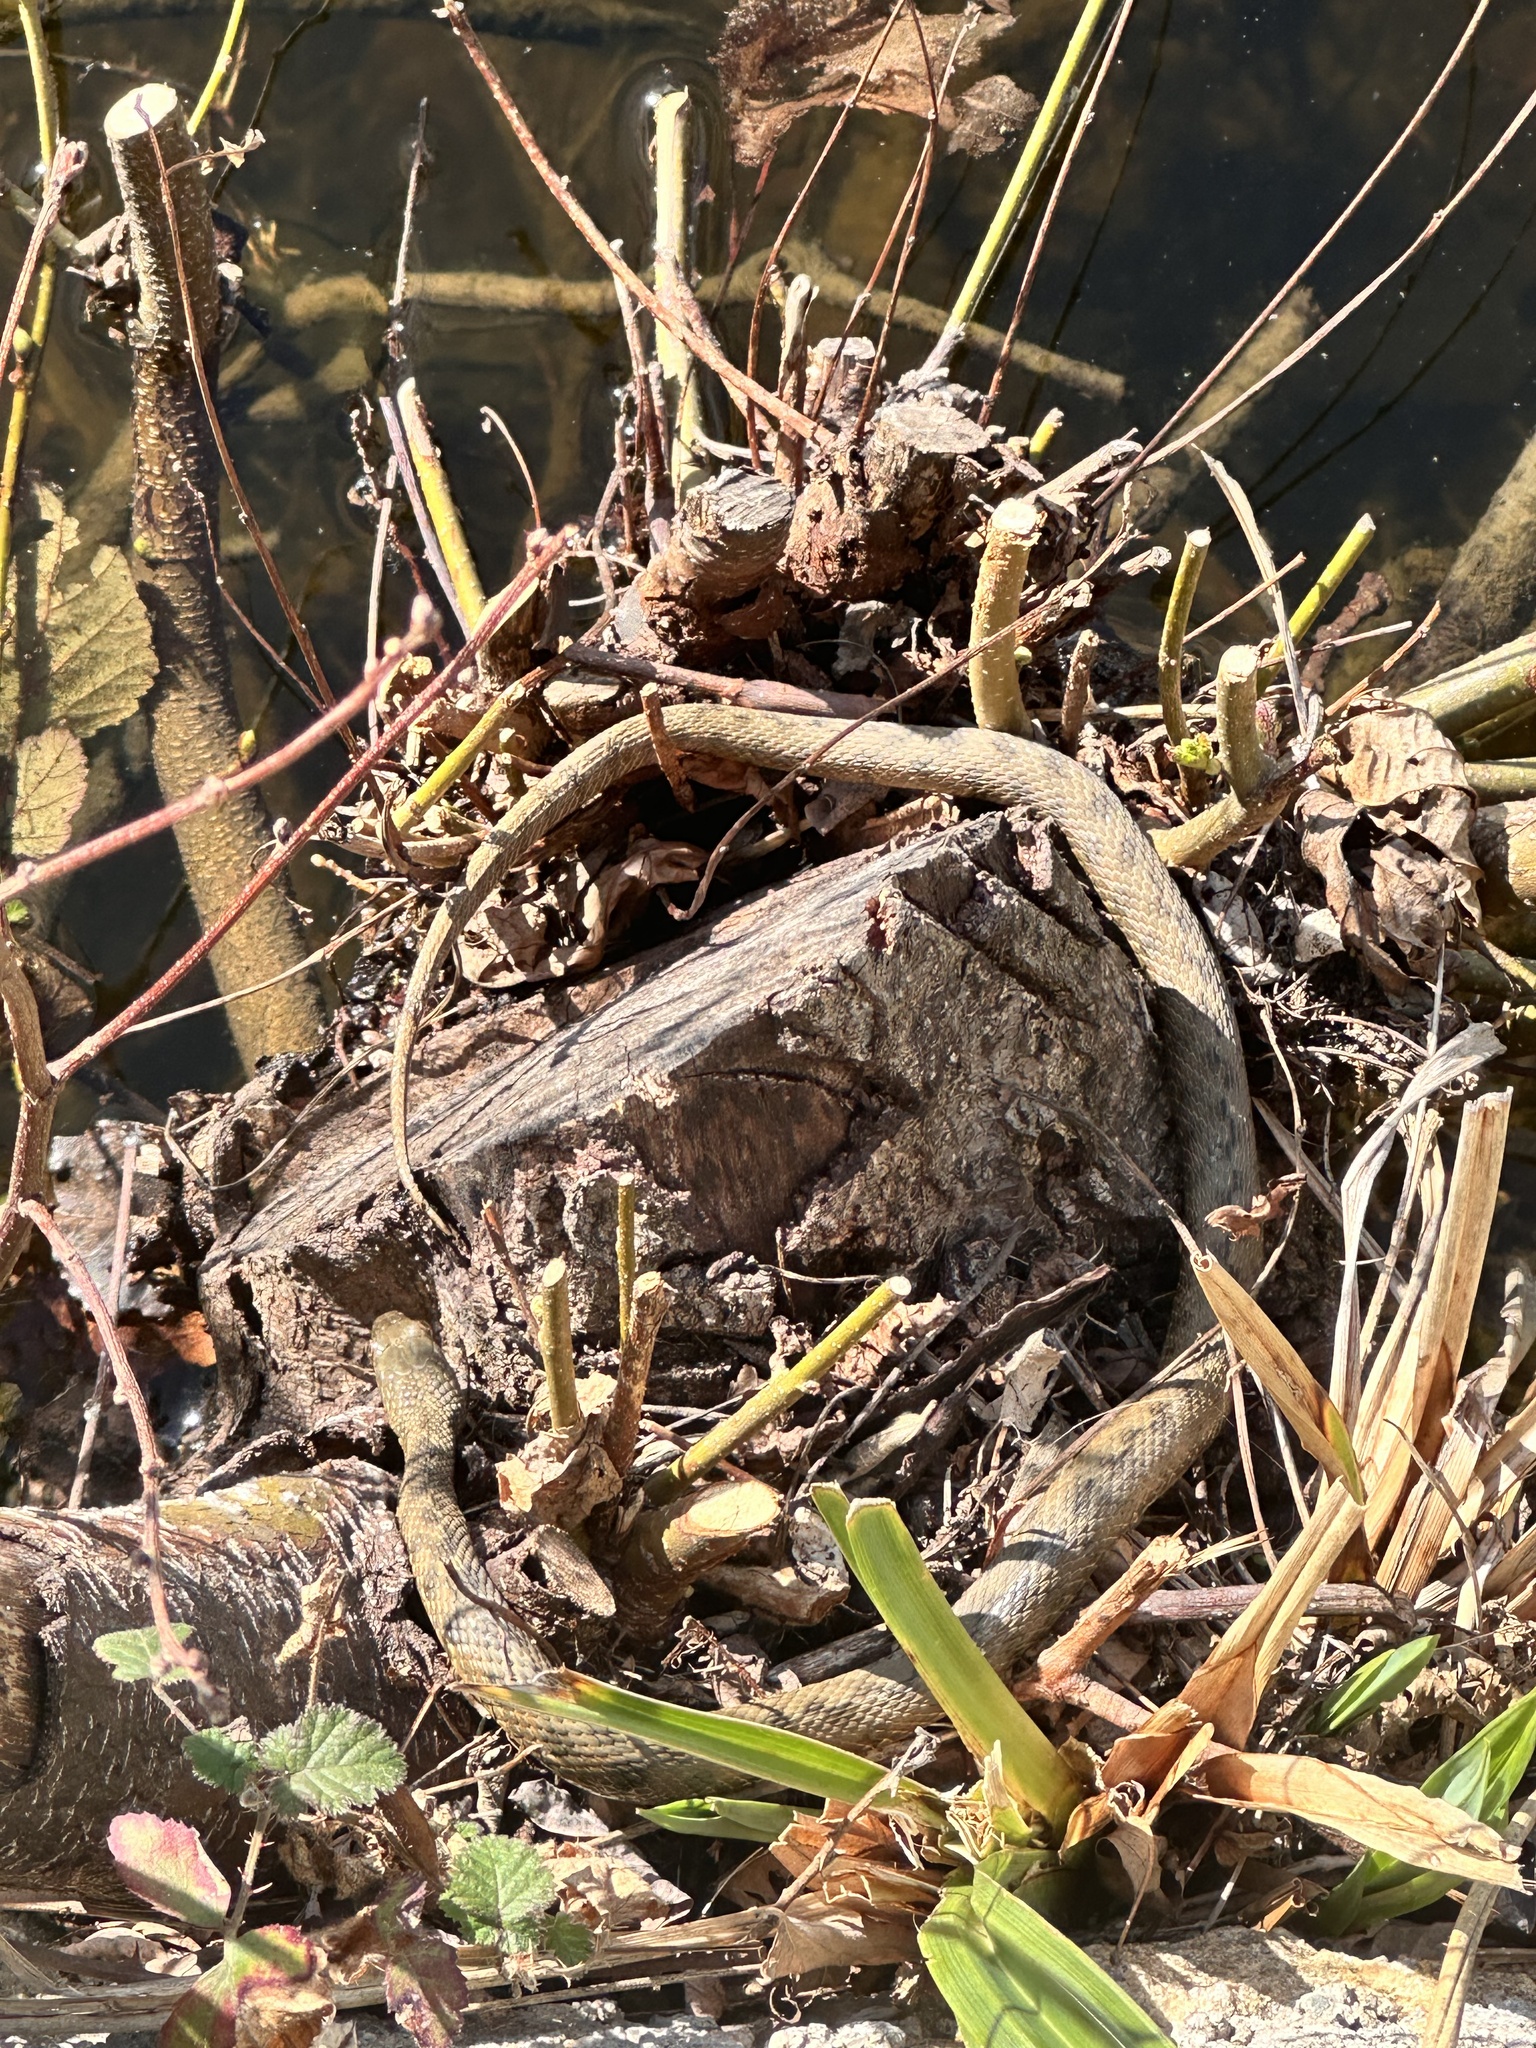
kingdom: Animalia
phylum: Chordata
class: Squamata
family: Colubridae
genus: Natrix
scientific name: Natrix maura
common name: Viperine water snake
